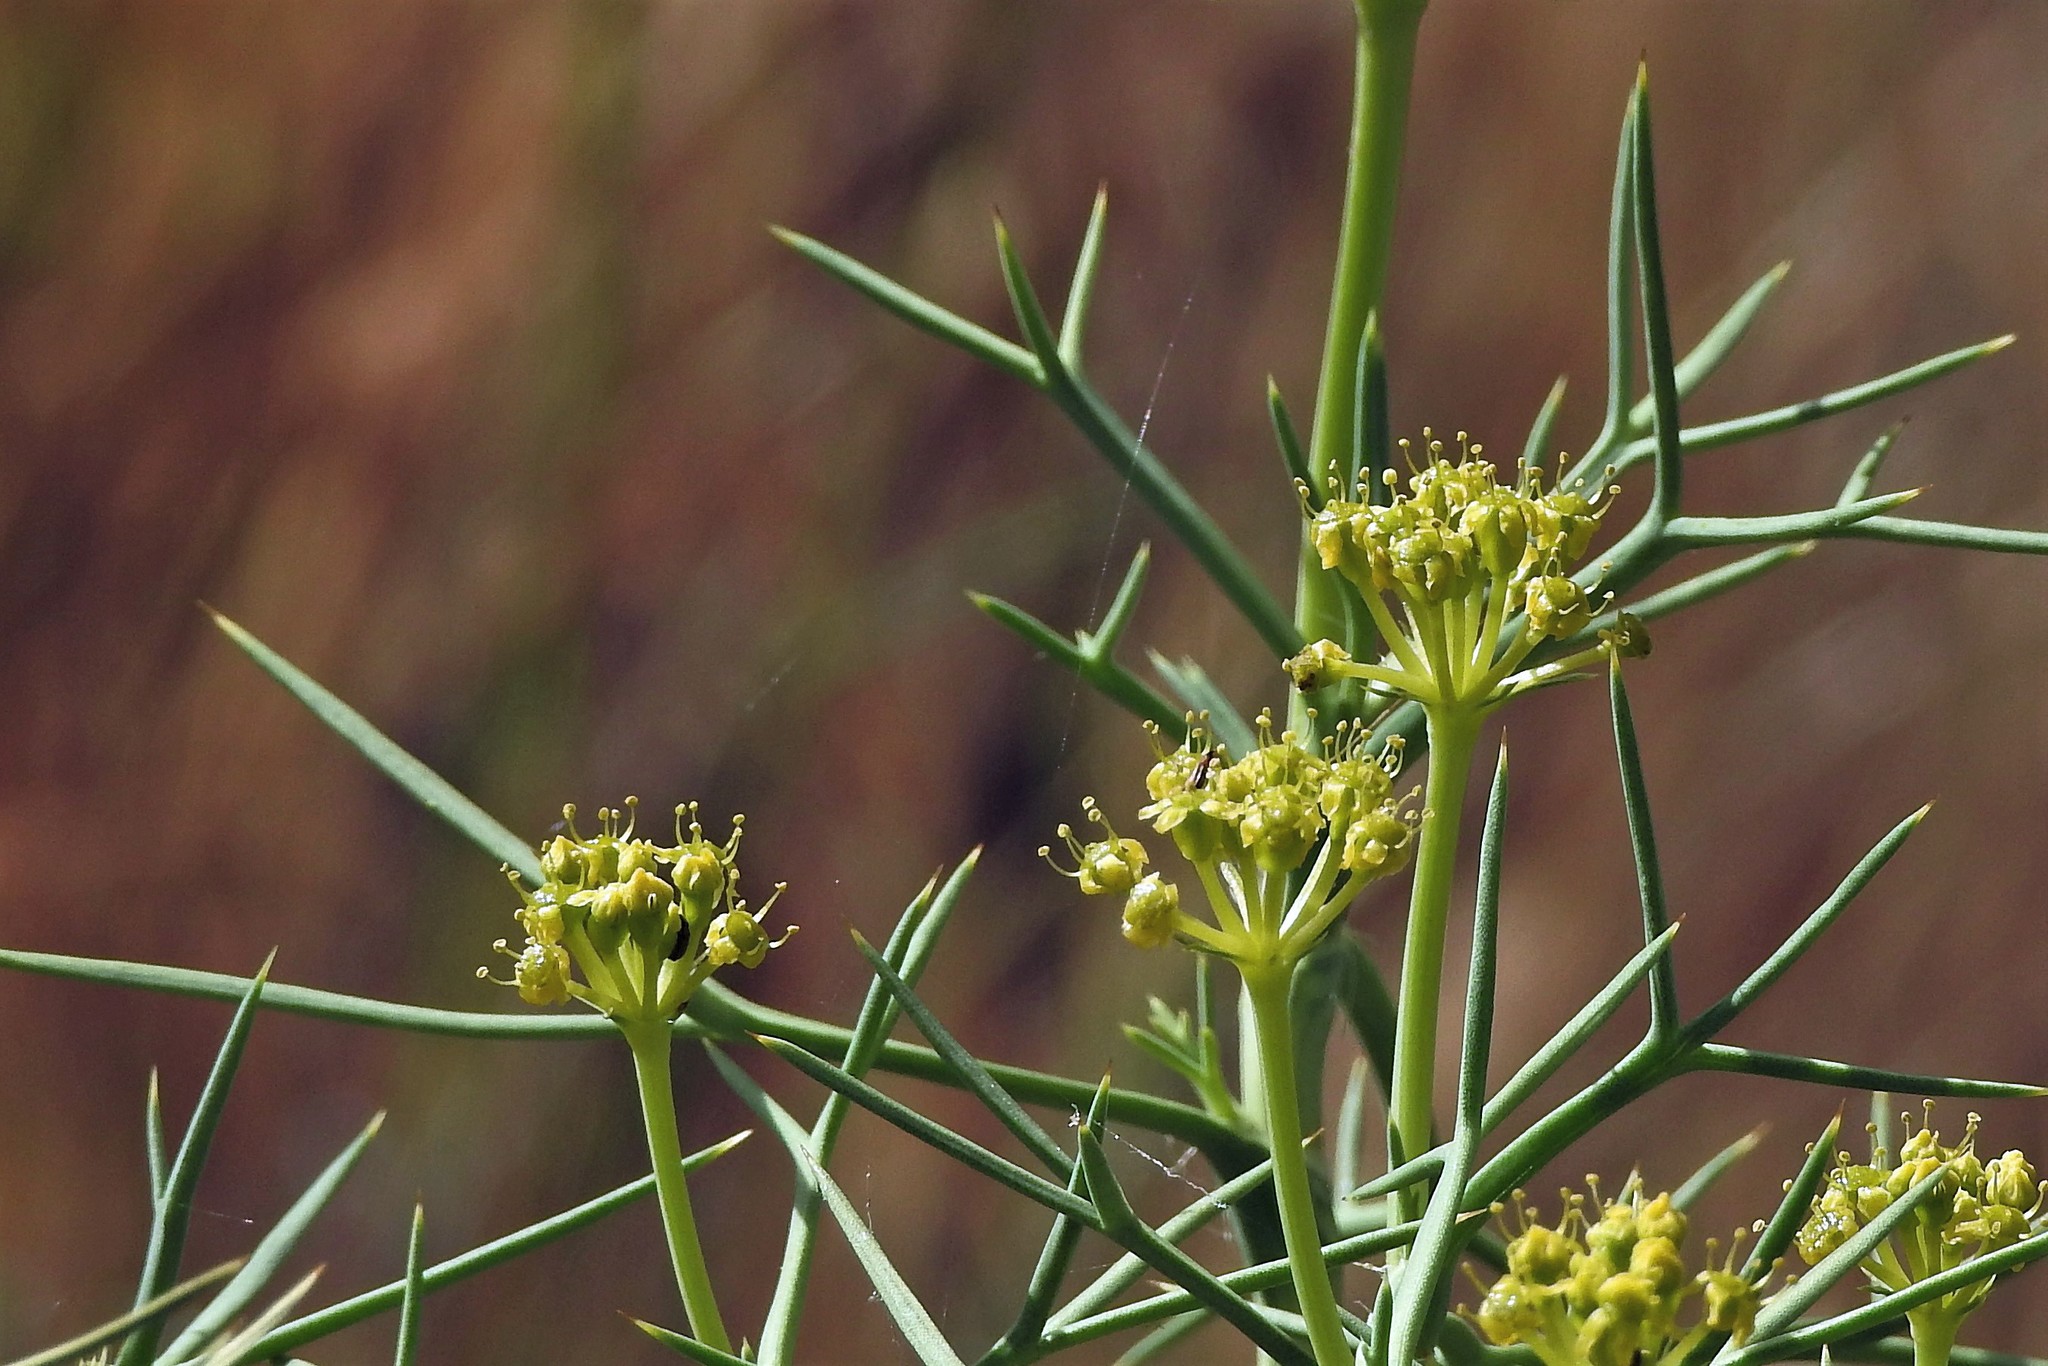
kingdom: Plantae
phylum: Tracheophyta
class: Magnoliopsida
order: Apiales
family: Apiaceae
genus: Azorella
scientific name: Azorella prolifera
